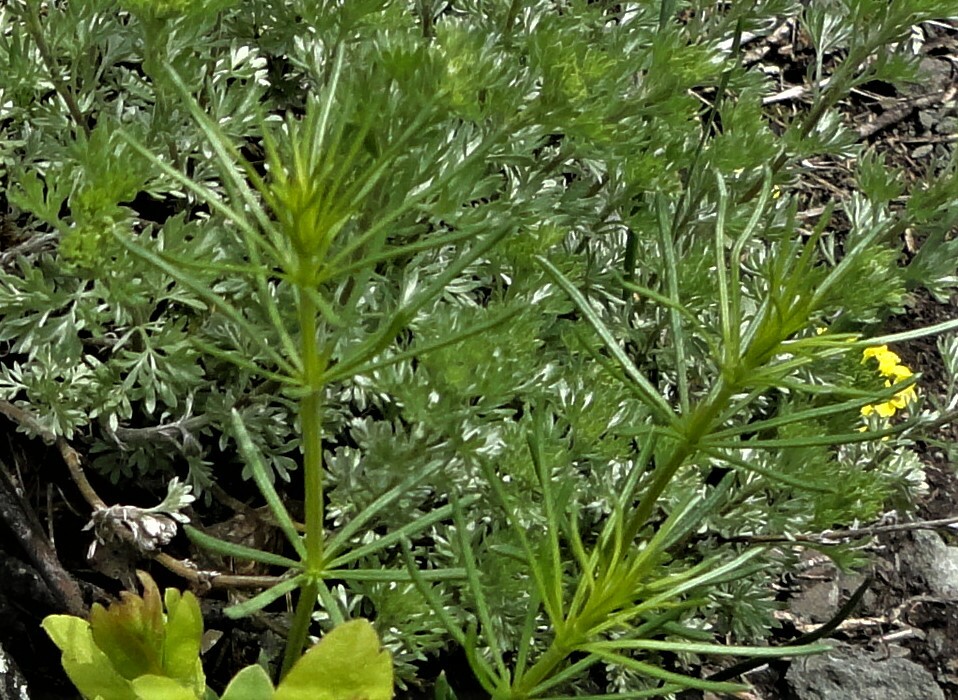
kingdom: Plantae
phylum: Tracheophyta
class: Magnoliopsida
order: Gentianales
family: Rubiaceae
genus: Galium
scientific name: Galium verum
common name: Lady's bedstraw
